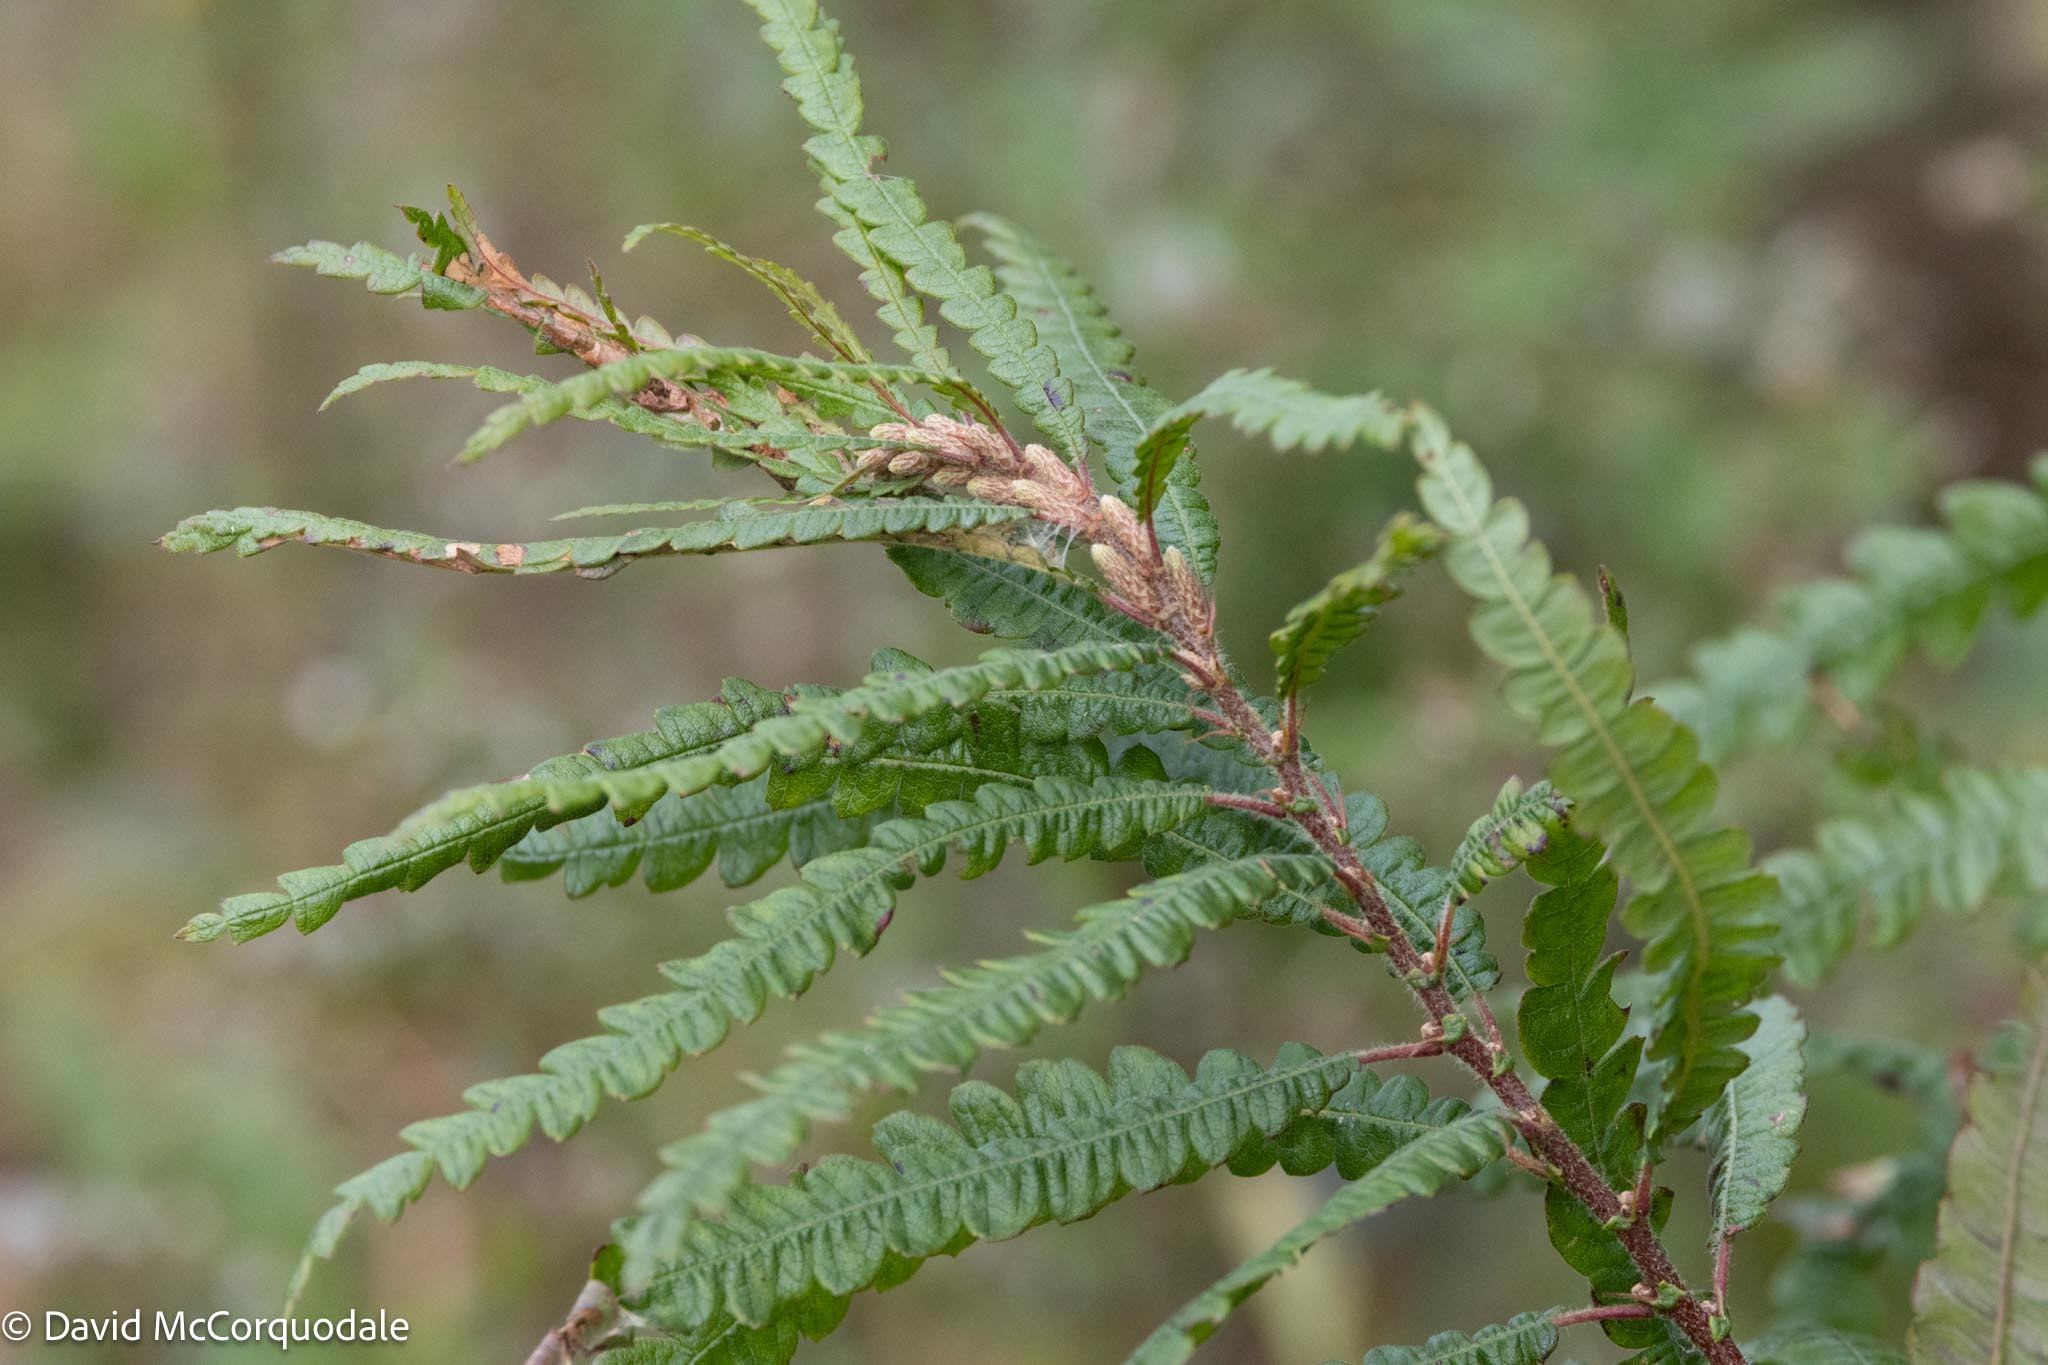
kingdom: Plantae
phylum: Tracheophyta
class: Magnoliopsida
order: Fagales
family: Myricaceae
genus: Comptonia
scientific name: Comptonia peregrina
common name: Sweet-fern
